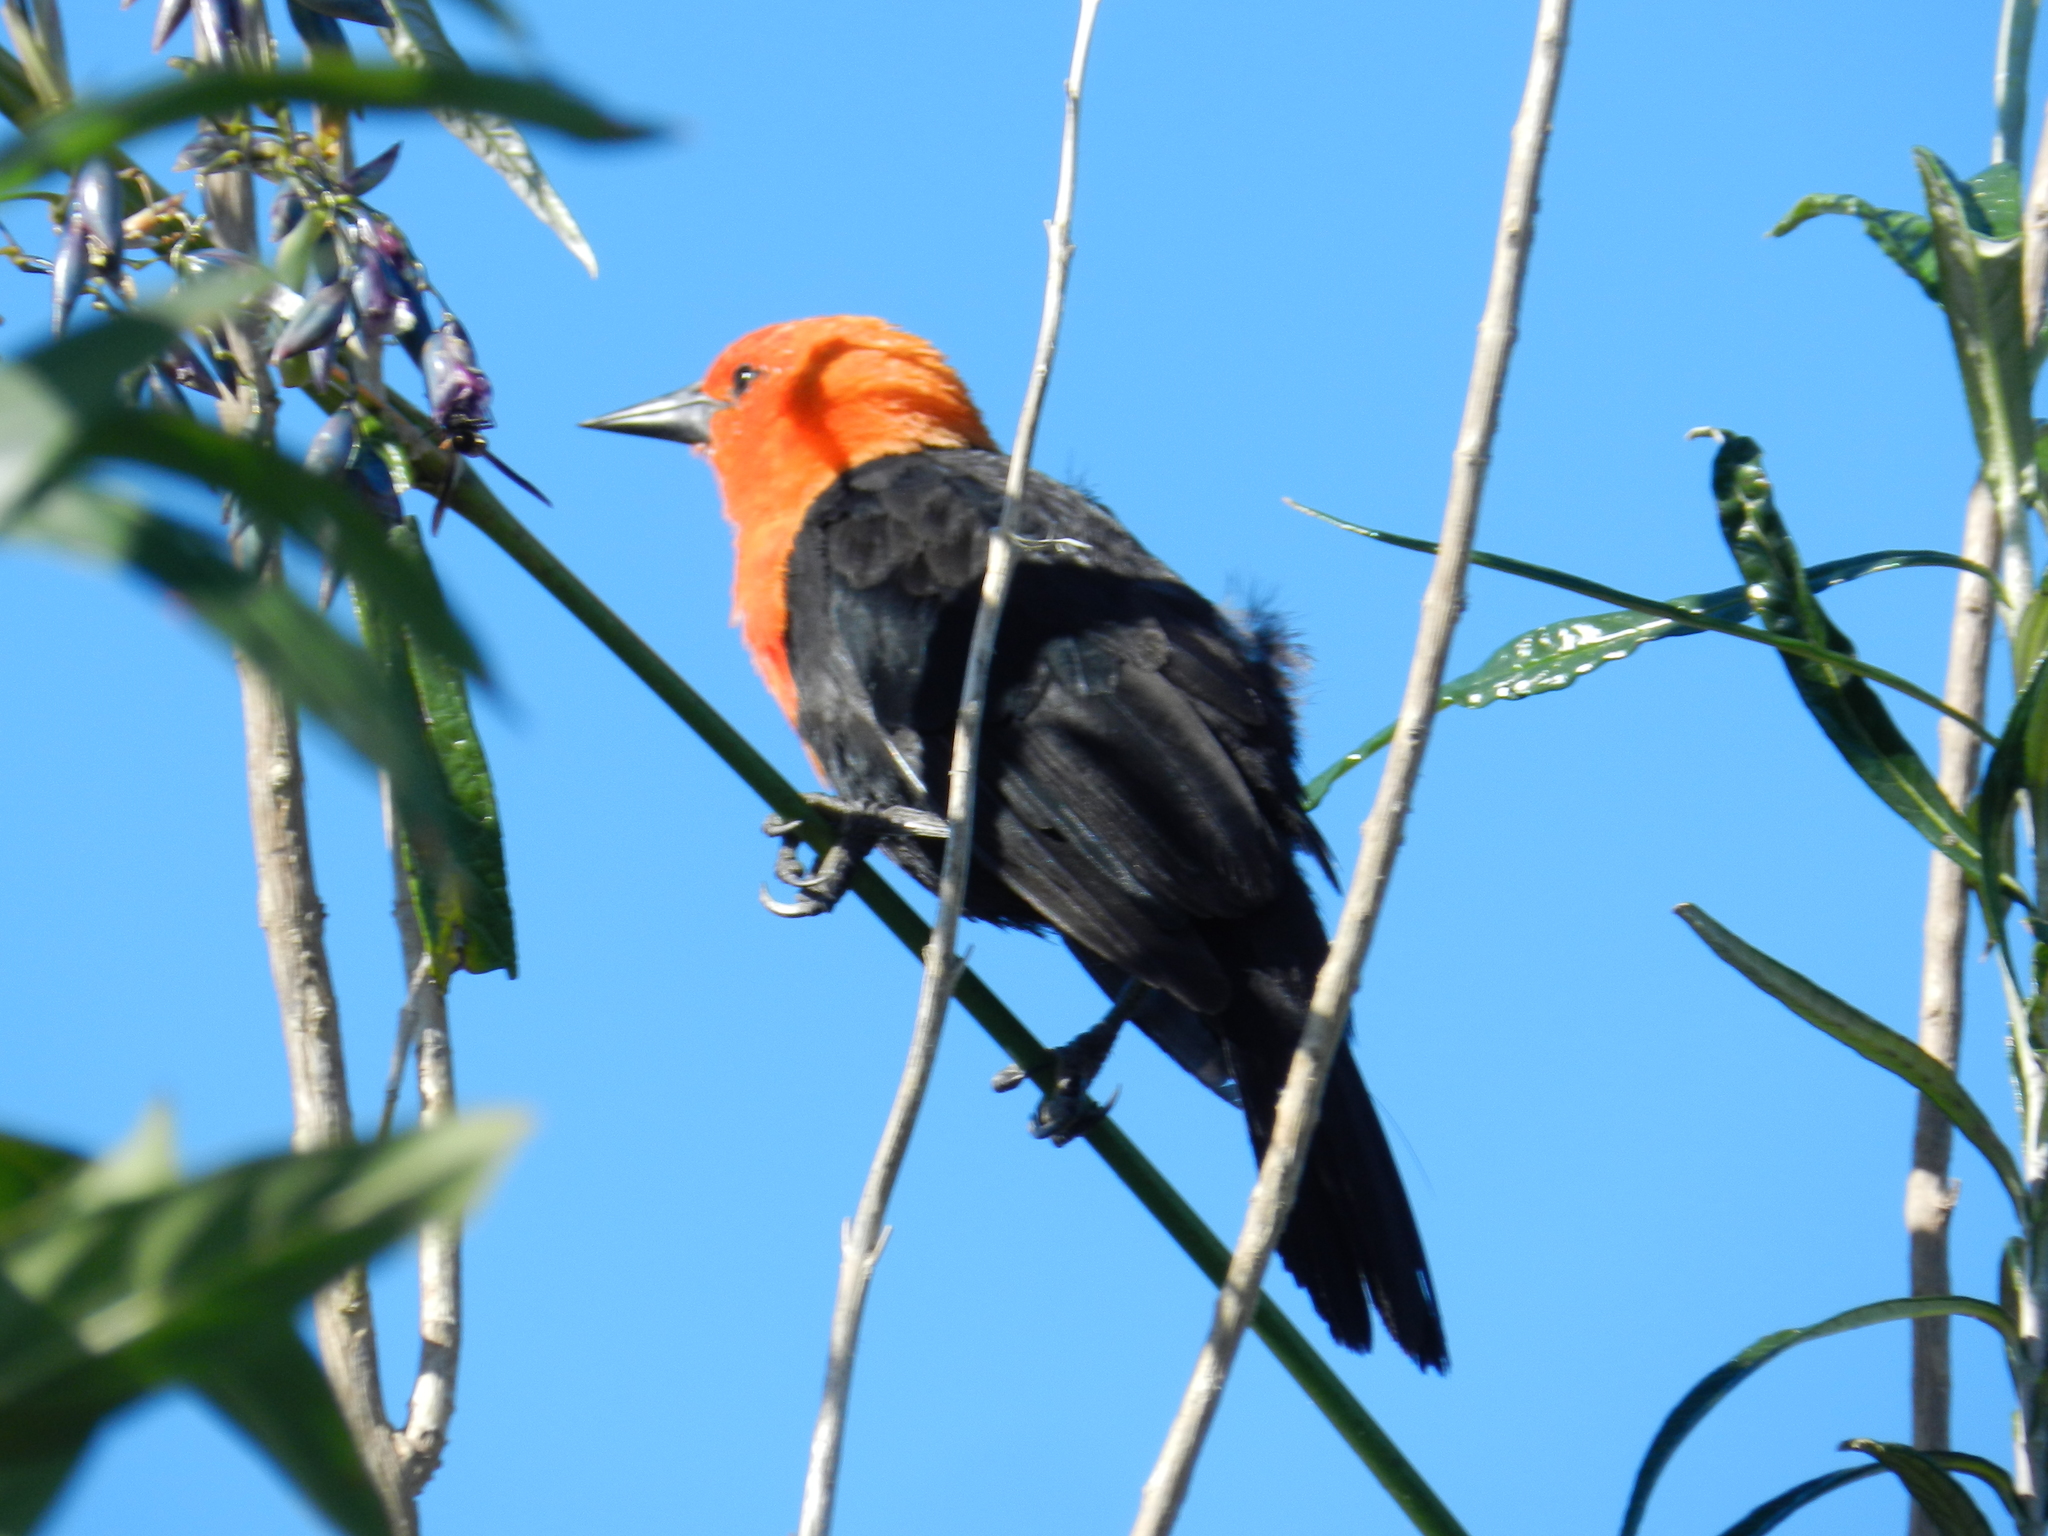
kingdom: Animalia
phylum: Chordata
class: Aves
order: Passeriformes
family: Icteridae
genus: Amblyramphus
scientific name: Amblyramphus holosericeus
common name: Scarlet-headed blackbird
